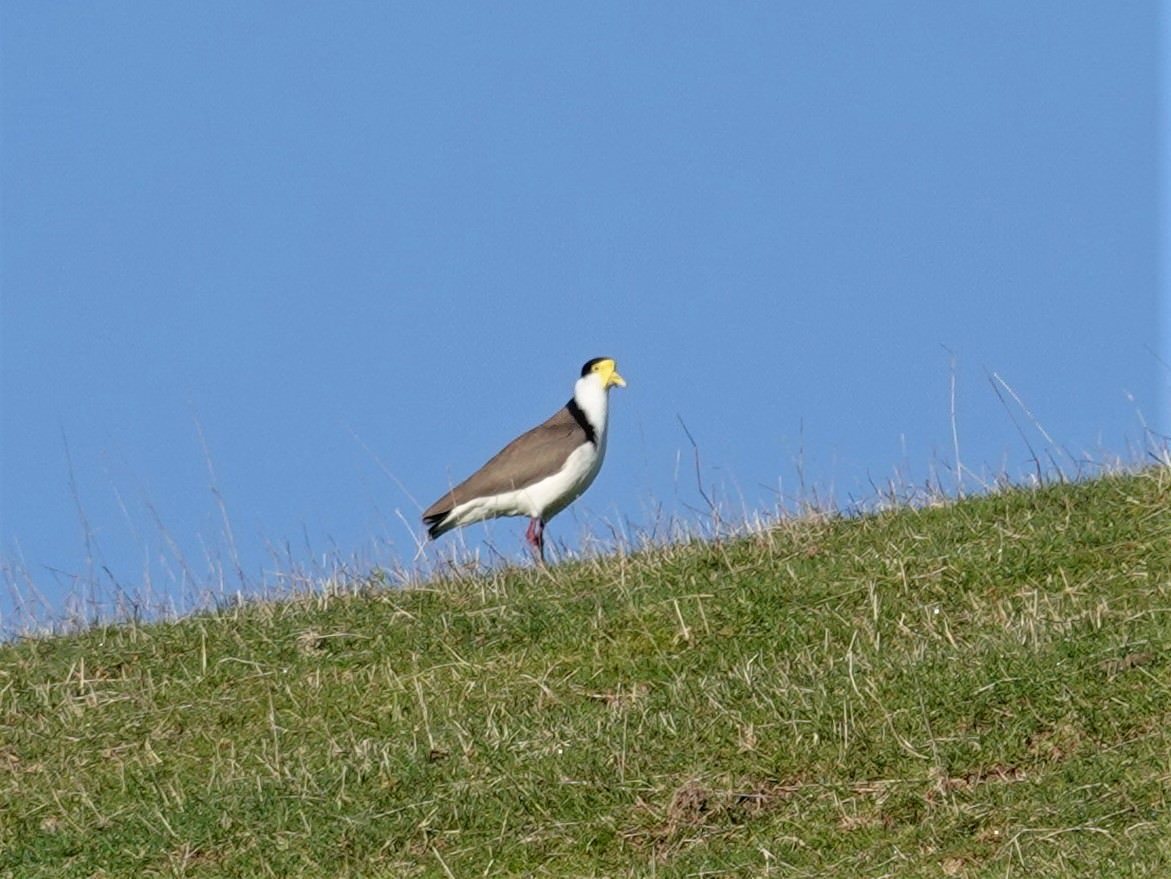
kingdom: Animalia
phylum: Chordata
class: Aves
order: Charadriiformes
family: Charadriidae
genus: Vanellus
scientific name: Vanellus miles
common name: Masked lapwing
